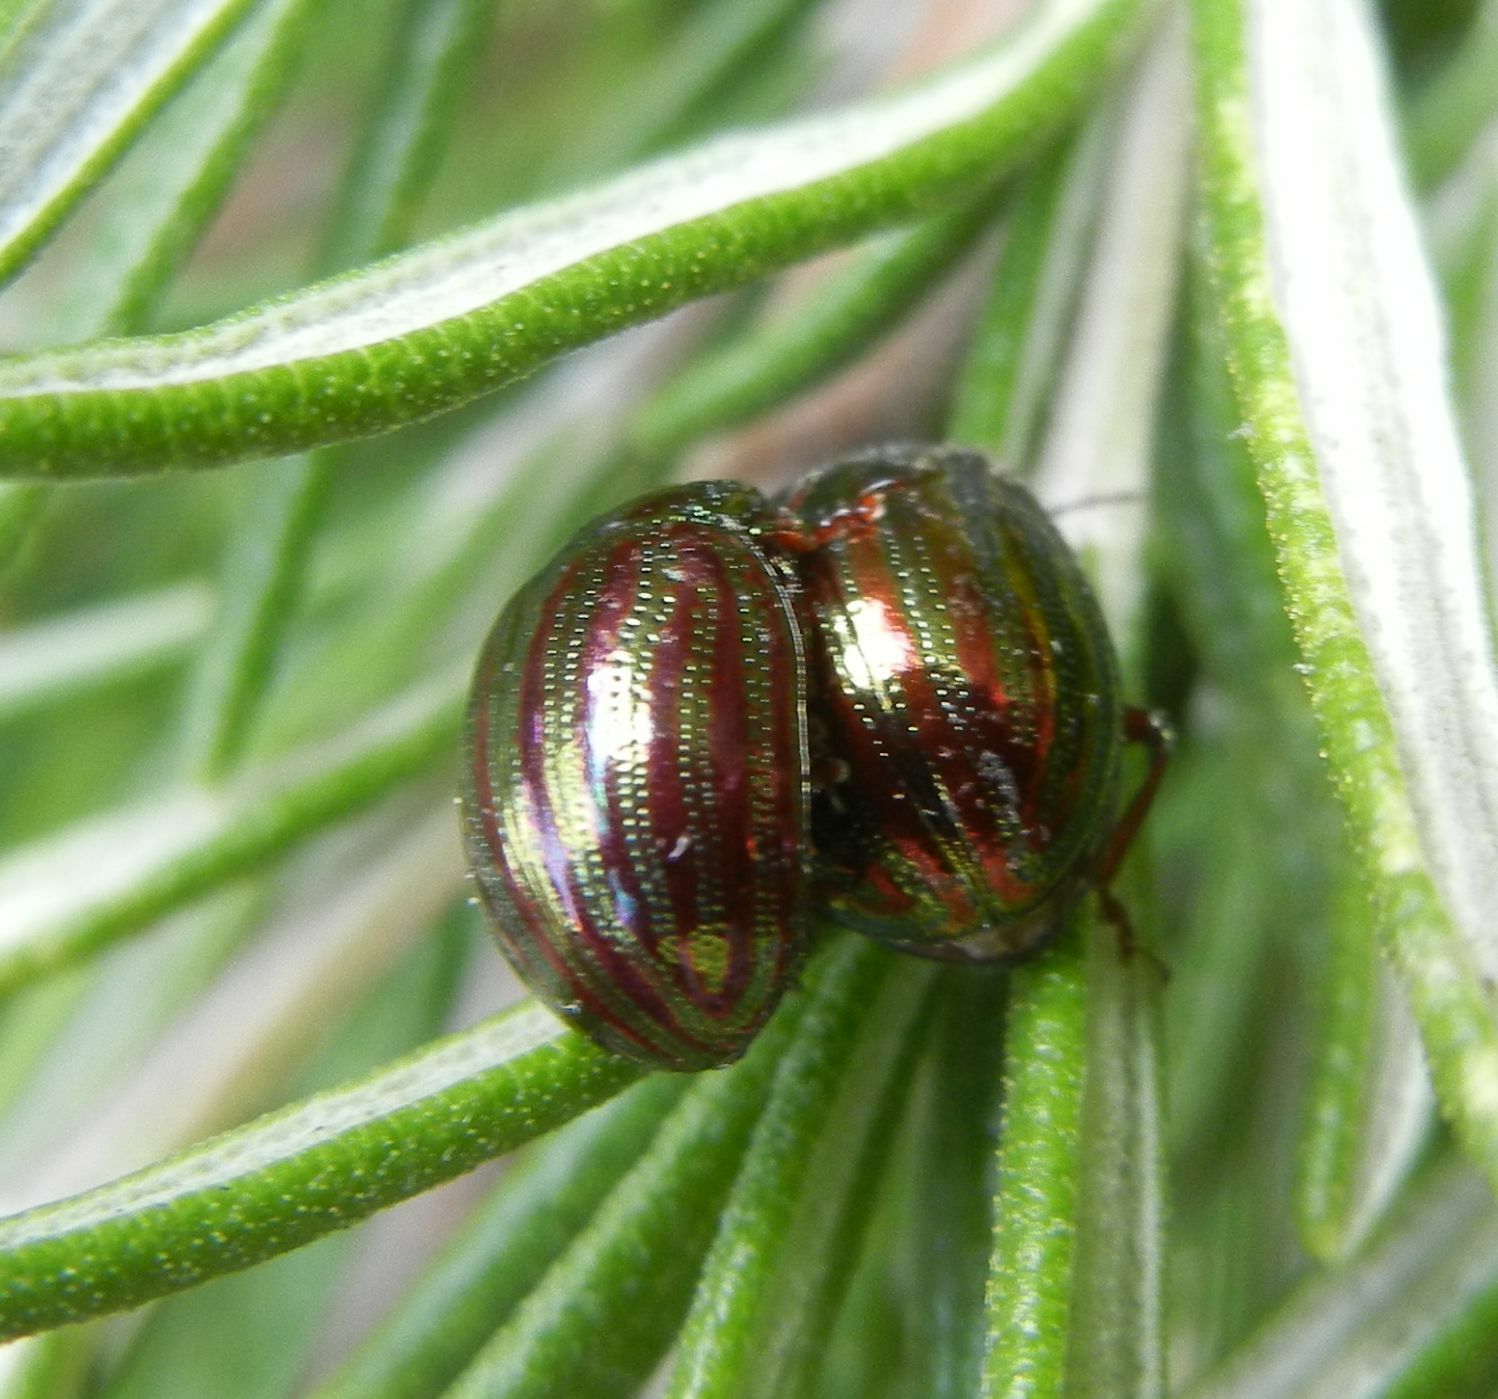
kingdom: Animalia
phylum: Arthropoda
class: Insecta
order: Coleoptera
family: Chrysomelidae
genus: Chrysolina
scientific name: Chrysolina americana
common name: Rosemary beetle
